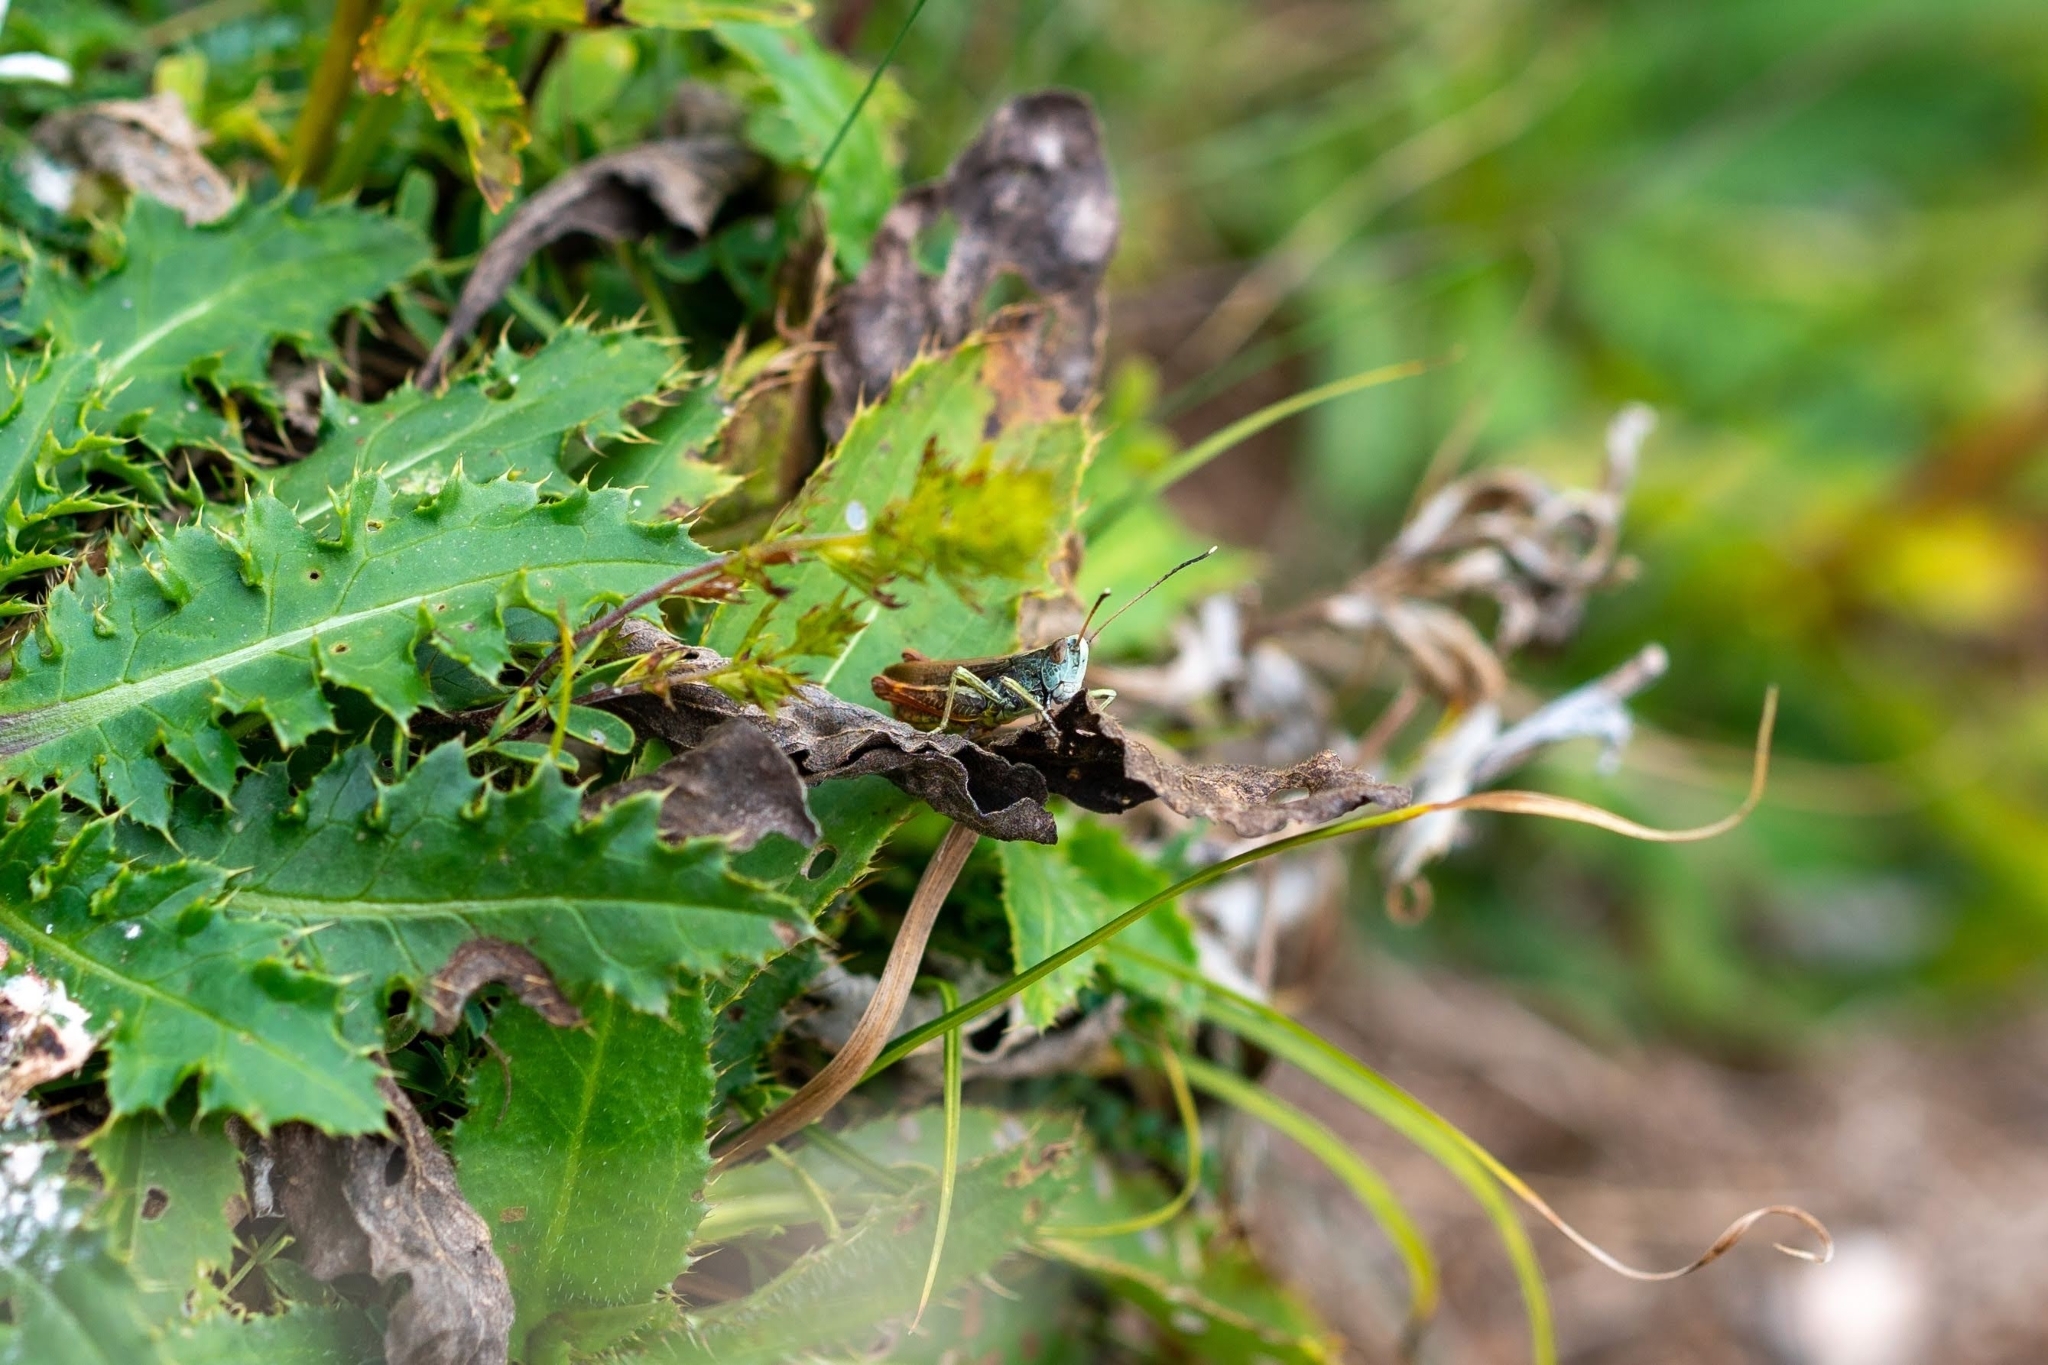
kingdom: Animalia
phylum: Arthropoda
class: Insecta
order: Orthoptera
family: Acrididae
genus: Gomphocerippus
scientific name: Gomphocerippus rufus
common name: Rufous grasshopper
